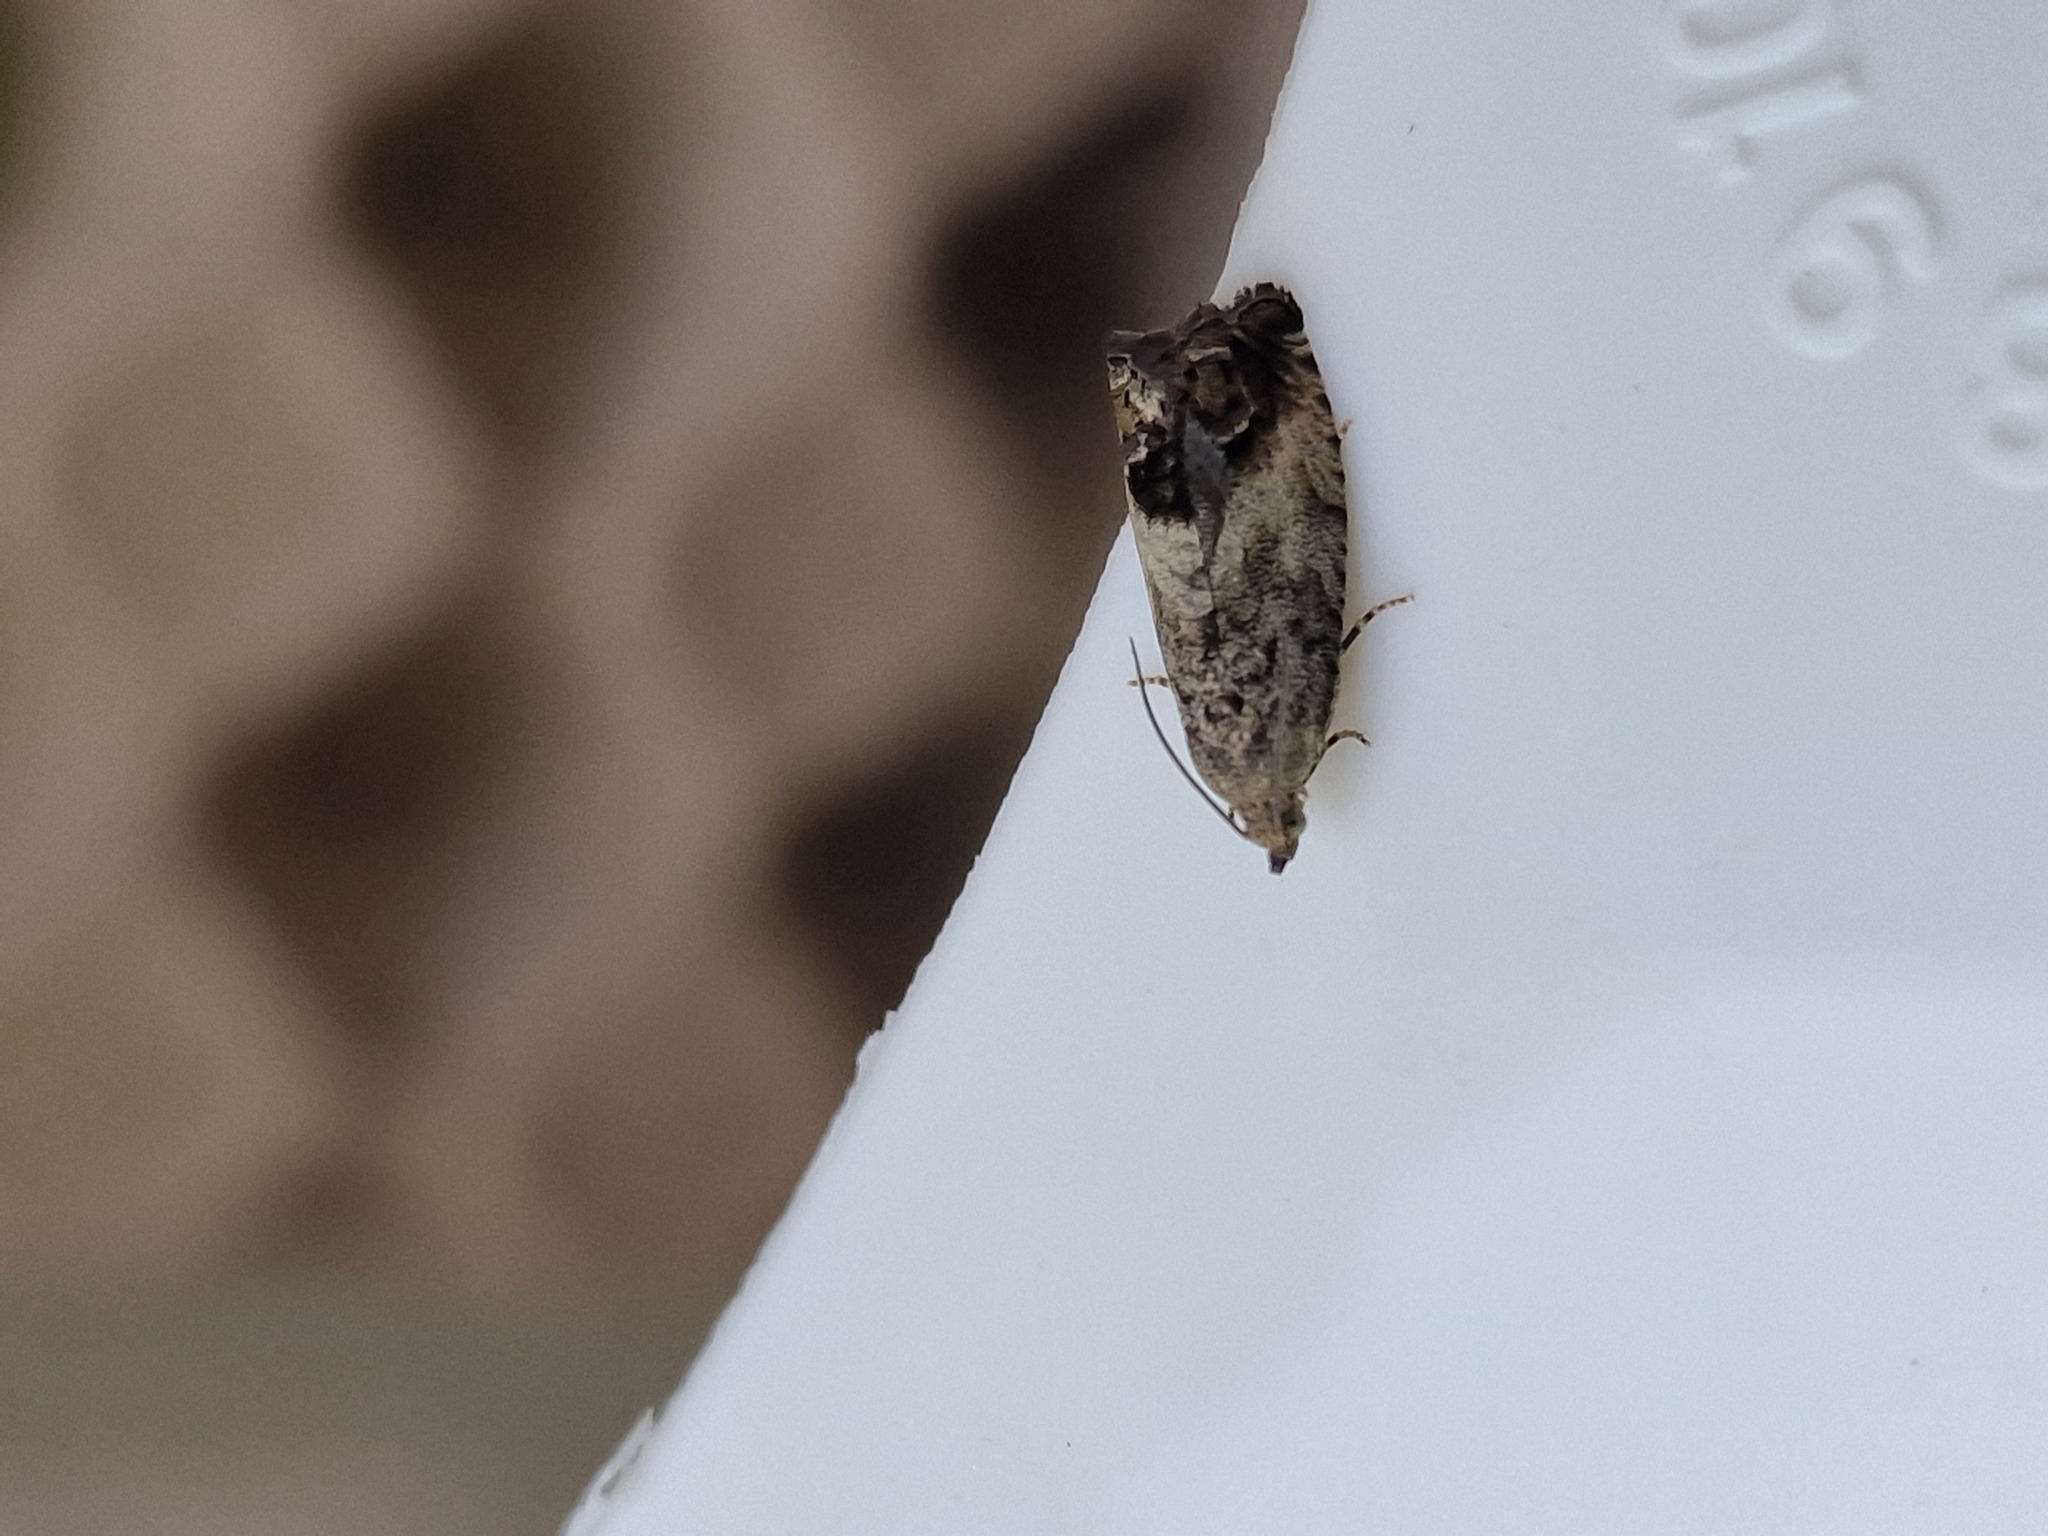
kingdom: Animalia
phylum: Arthropoda
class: Insecta
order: Lepidoptera
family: Tortricidae
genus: Cydia
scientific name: Cydia splendana
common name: De: kastanienwickler, eichenwickler es: oruga de la castaña fr: carpocapse des châtaignes it: cidia o tortrice tardiva delle castagne pt: bichado das castanhas gb: acorn moth, chestnut fruit tortrix
